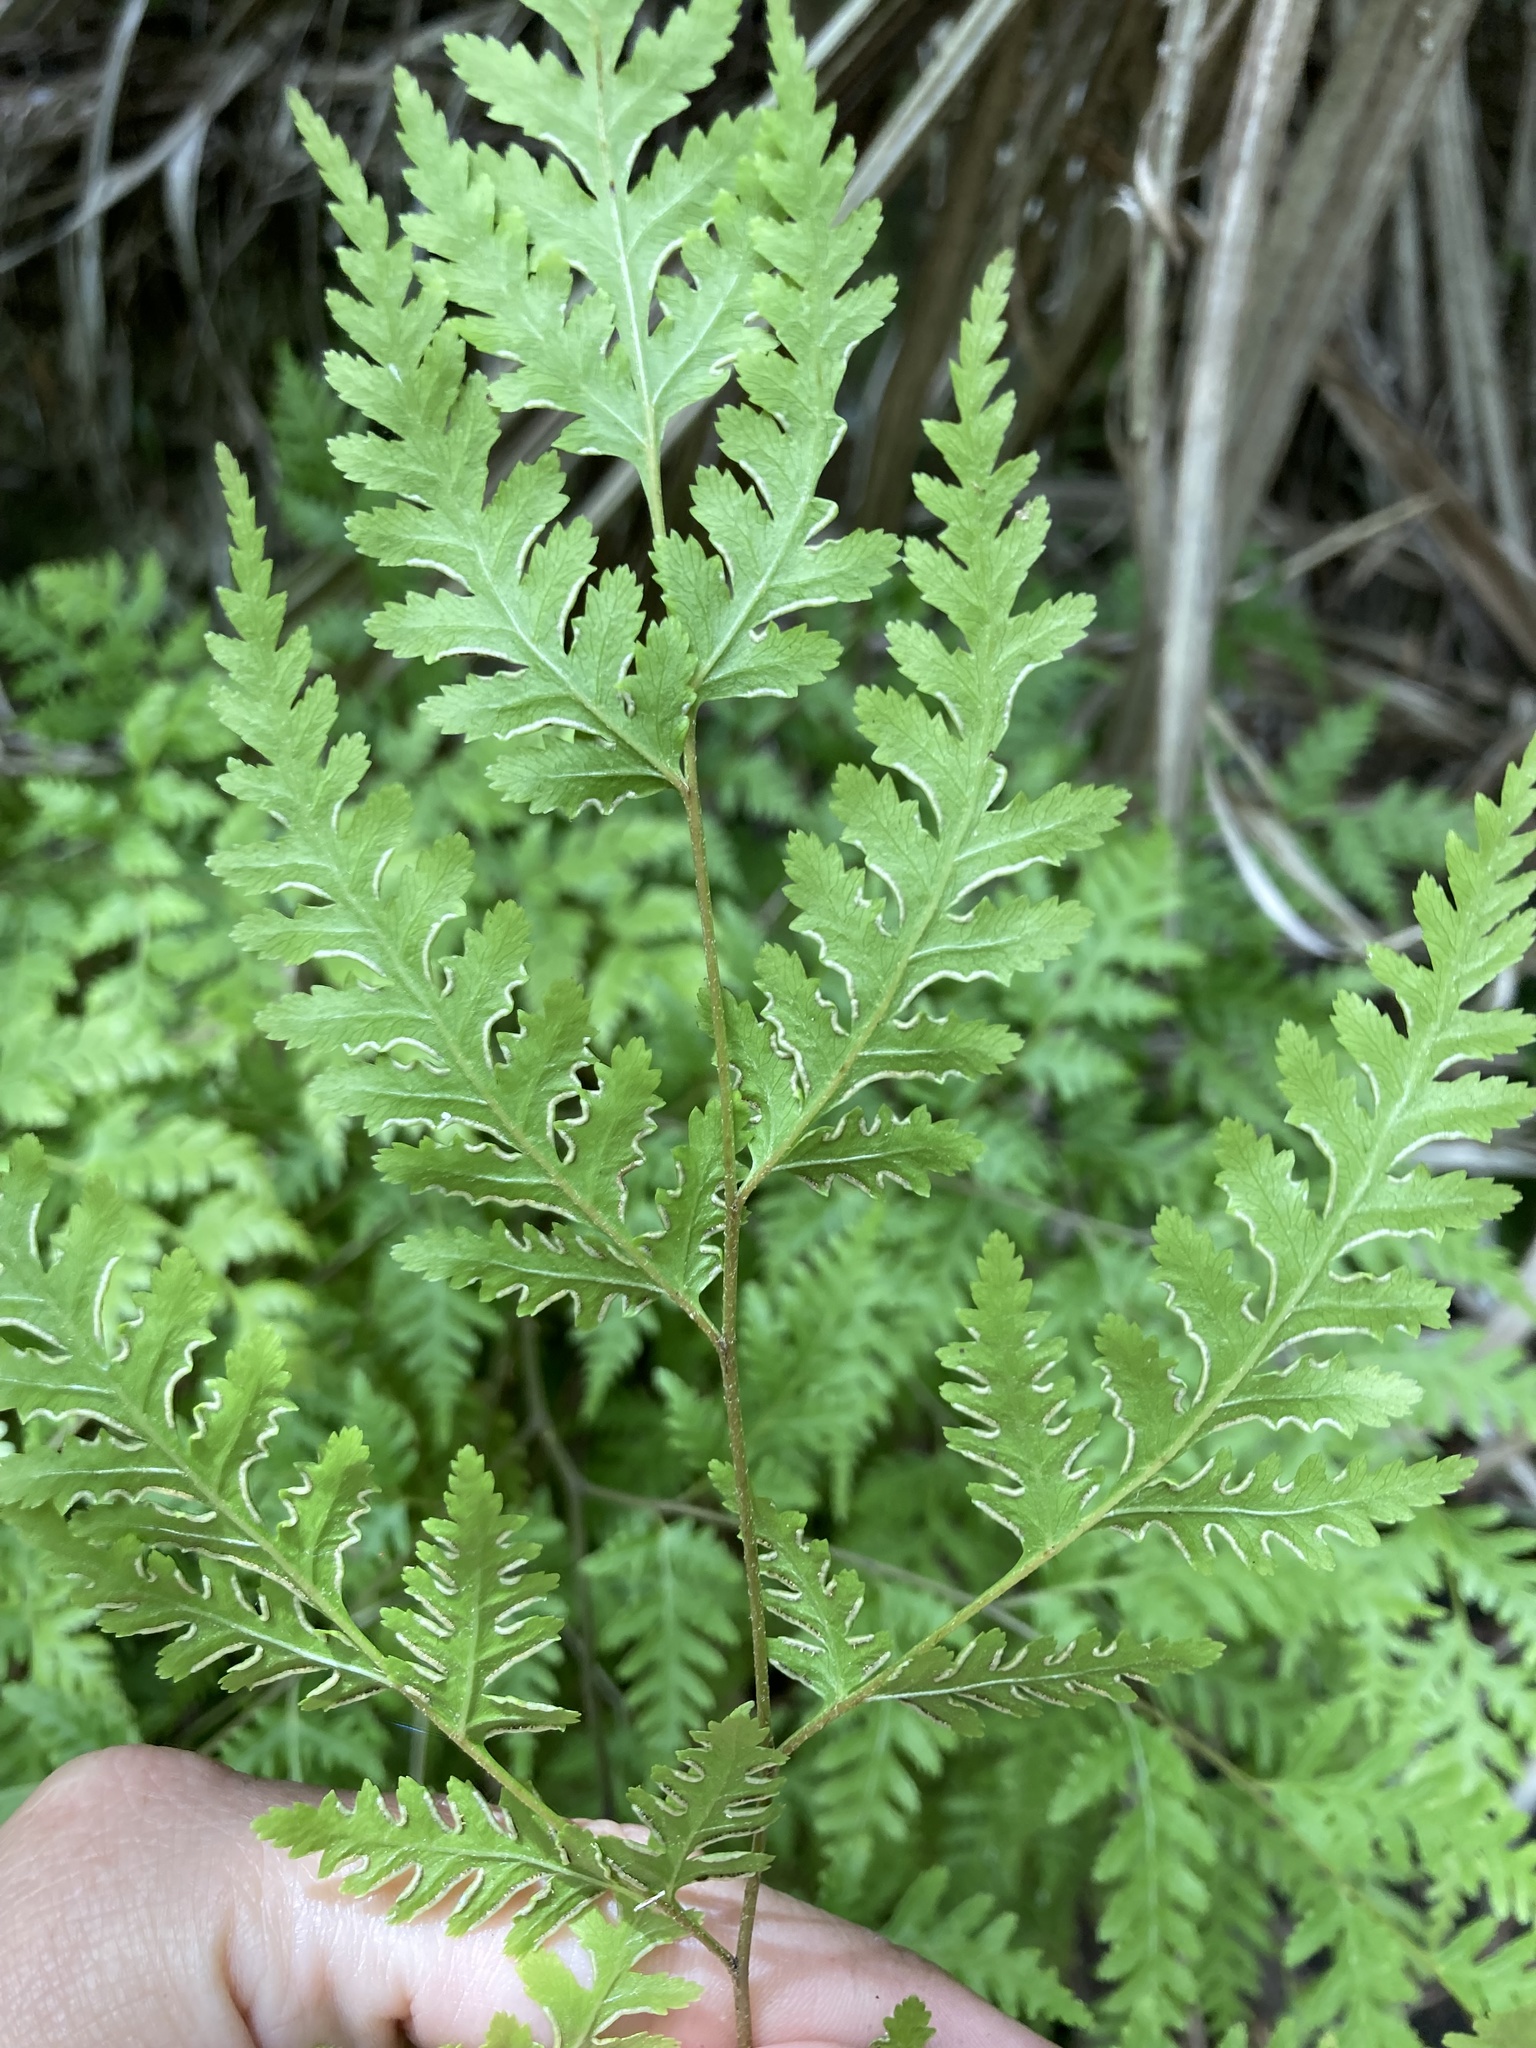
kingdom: Plantae
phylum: Tracheophyta
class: Polypodiopsida
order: Polypodiales
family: Pteridaceae
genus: Pteris
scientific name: Pteris macilenta
